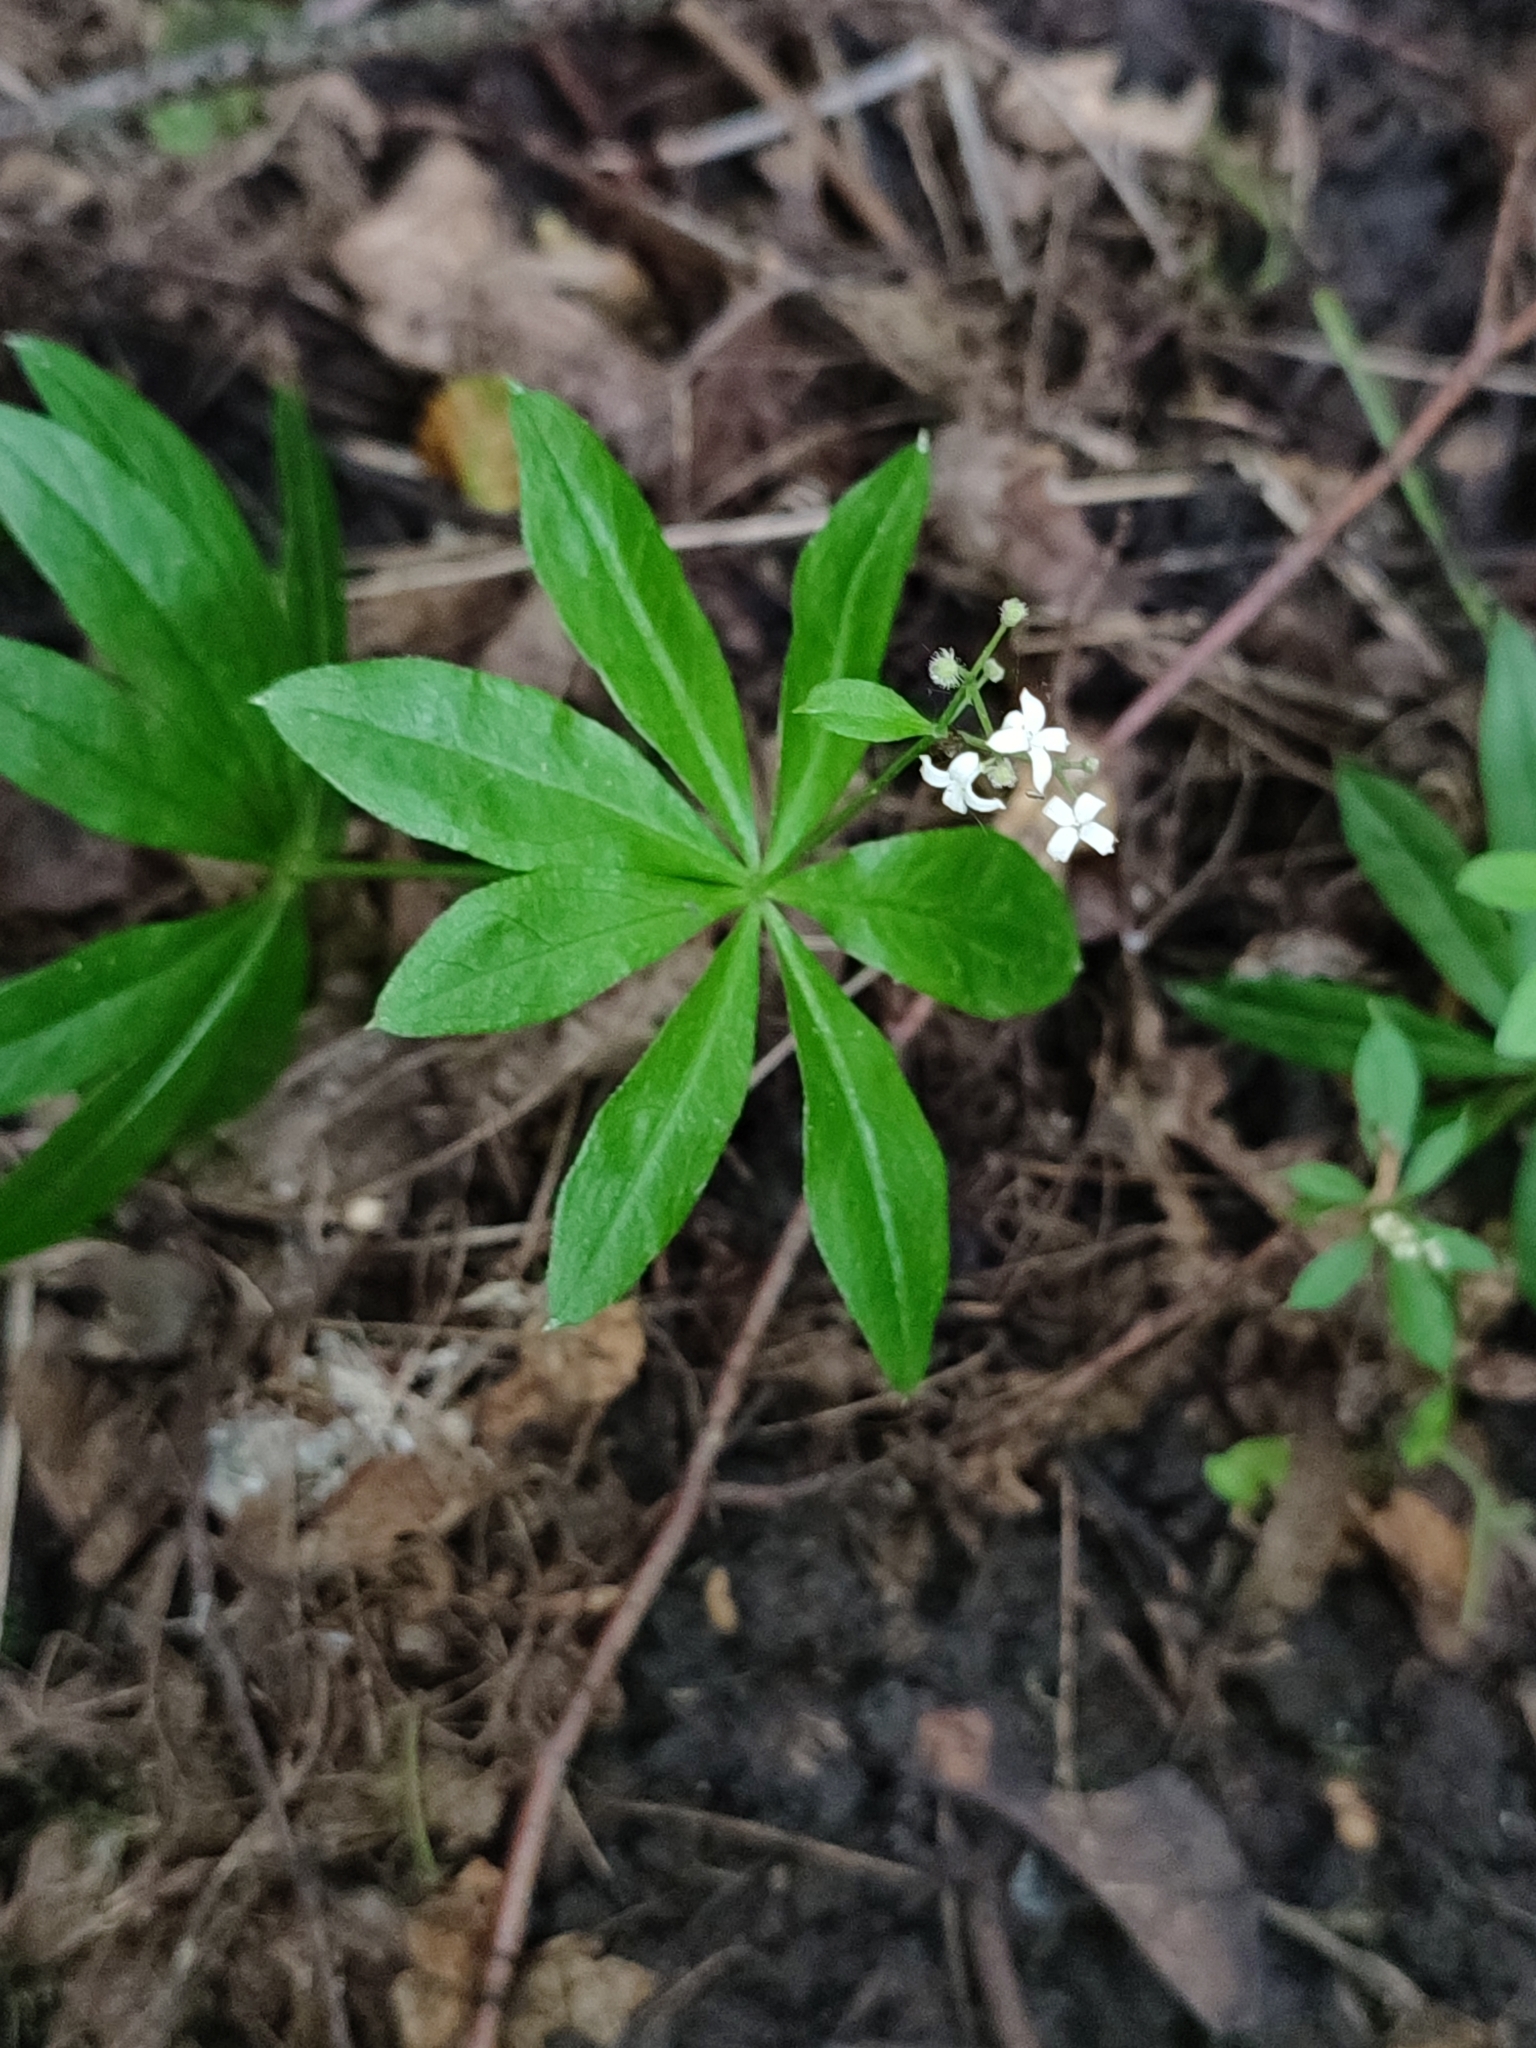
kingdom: Plantae
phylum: Tracheophyta
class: Magnoliopsida
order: Gentianales
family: Rubiaceae
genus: Galium
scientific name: Galium odoratum
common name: Sweet woodruff
